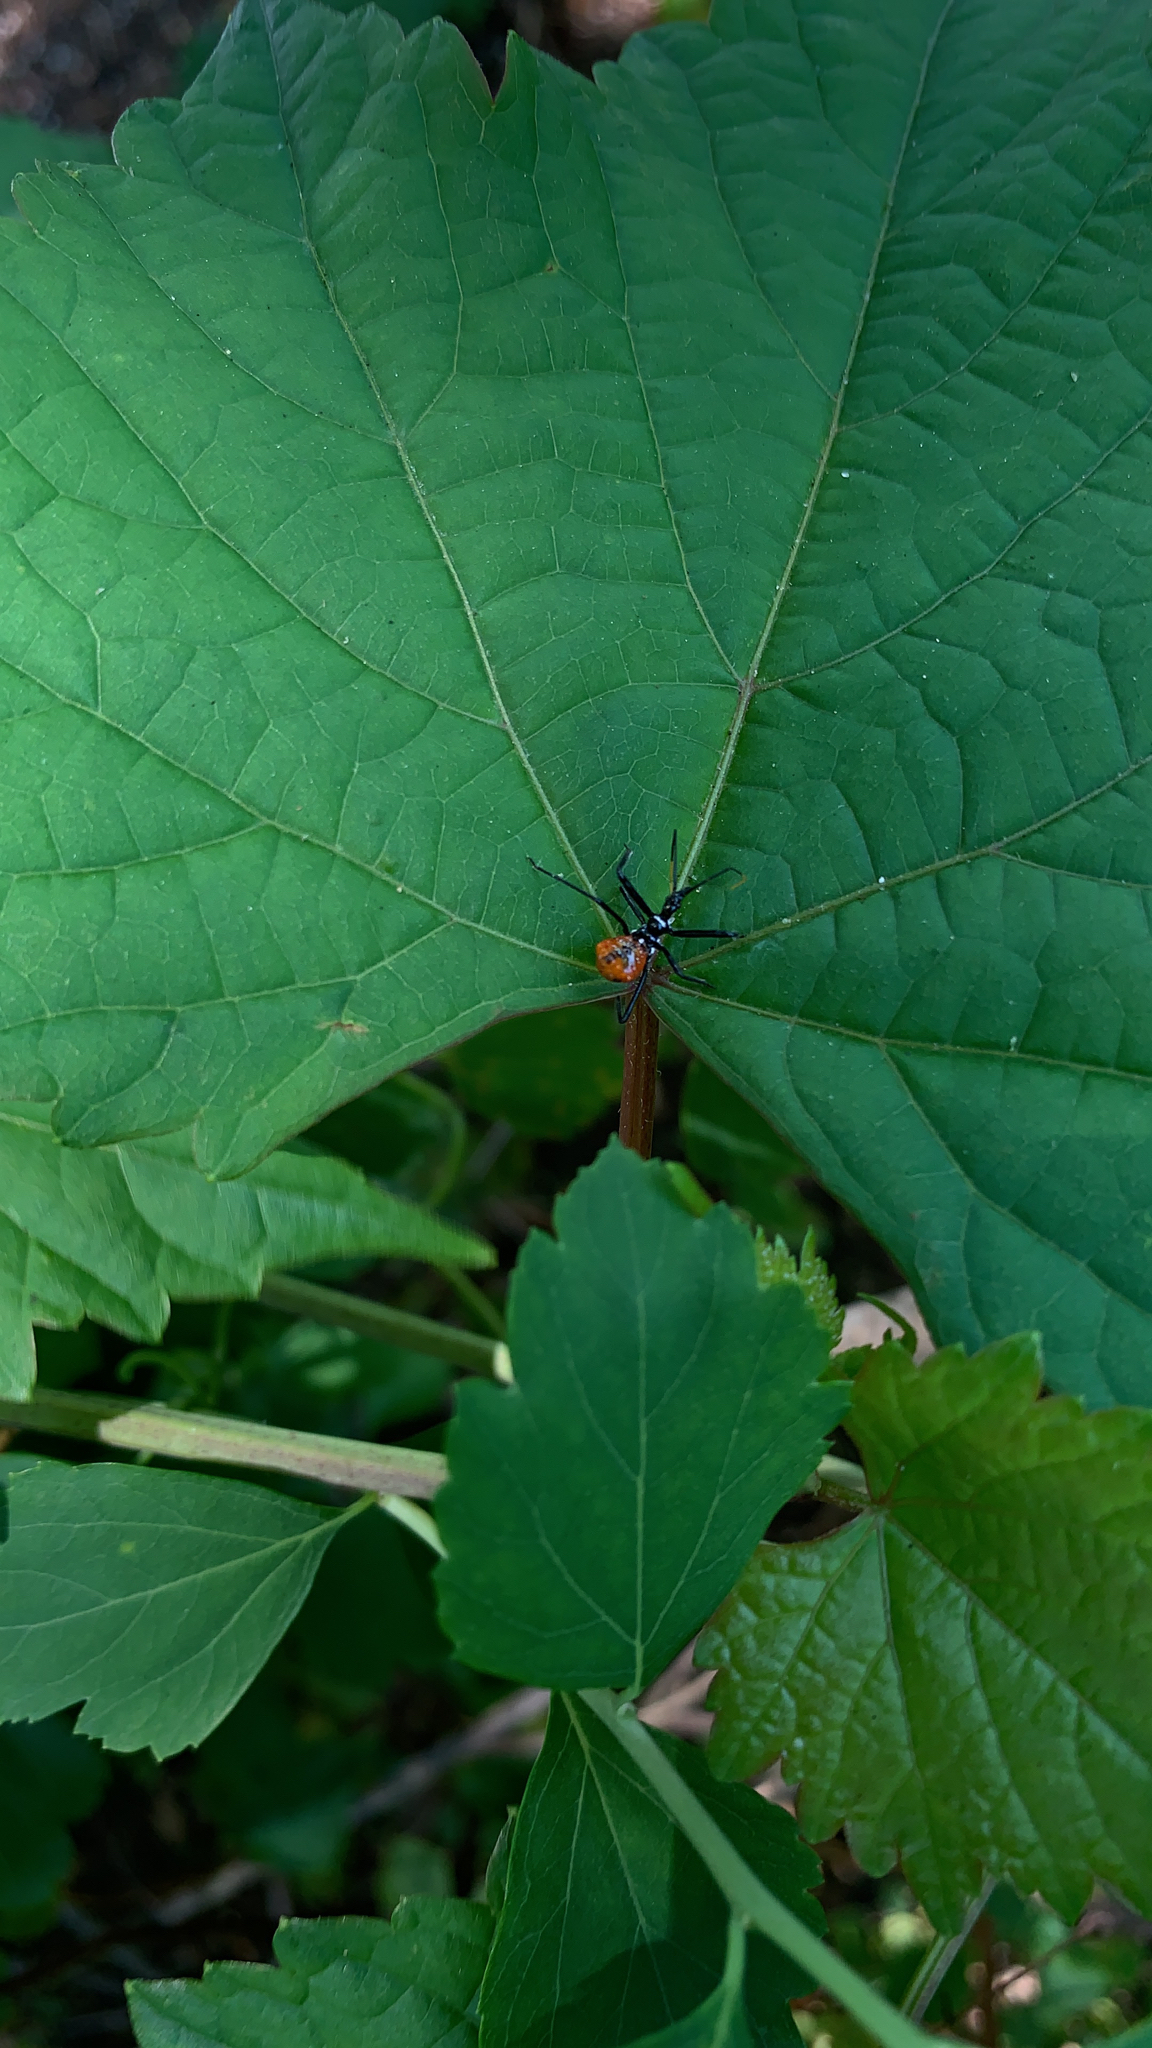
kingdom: Animalia
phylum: Arthropoda
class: Insecta
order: Hemiptera
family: Reduviidae
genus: Arilus
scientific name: Arilus cristatus
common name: North american wheel bug
